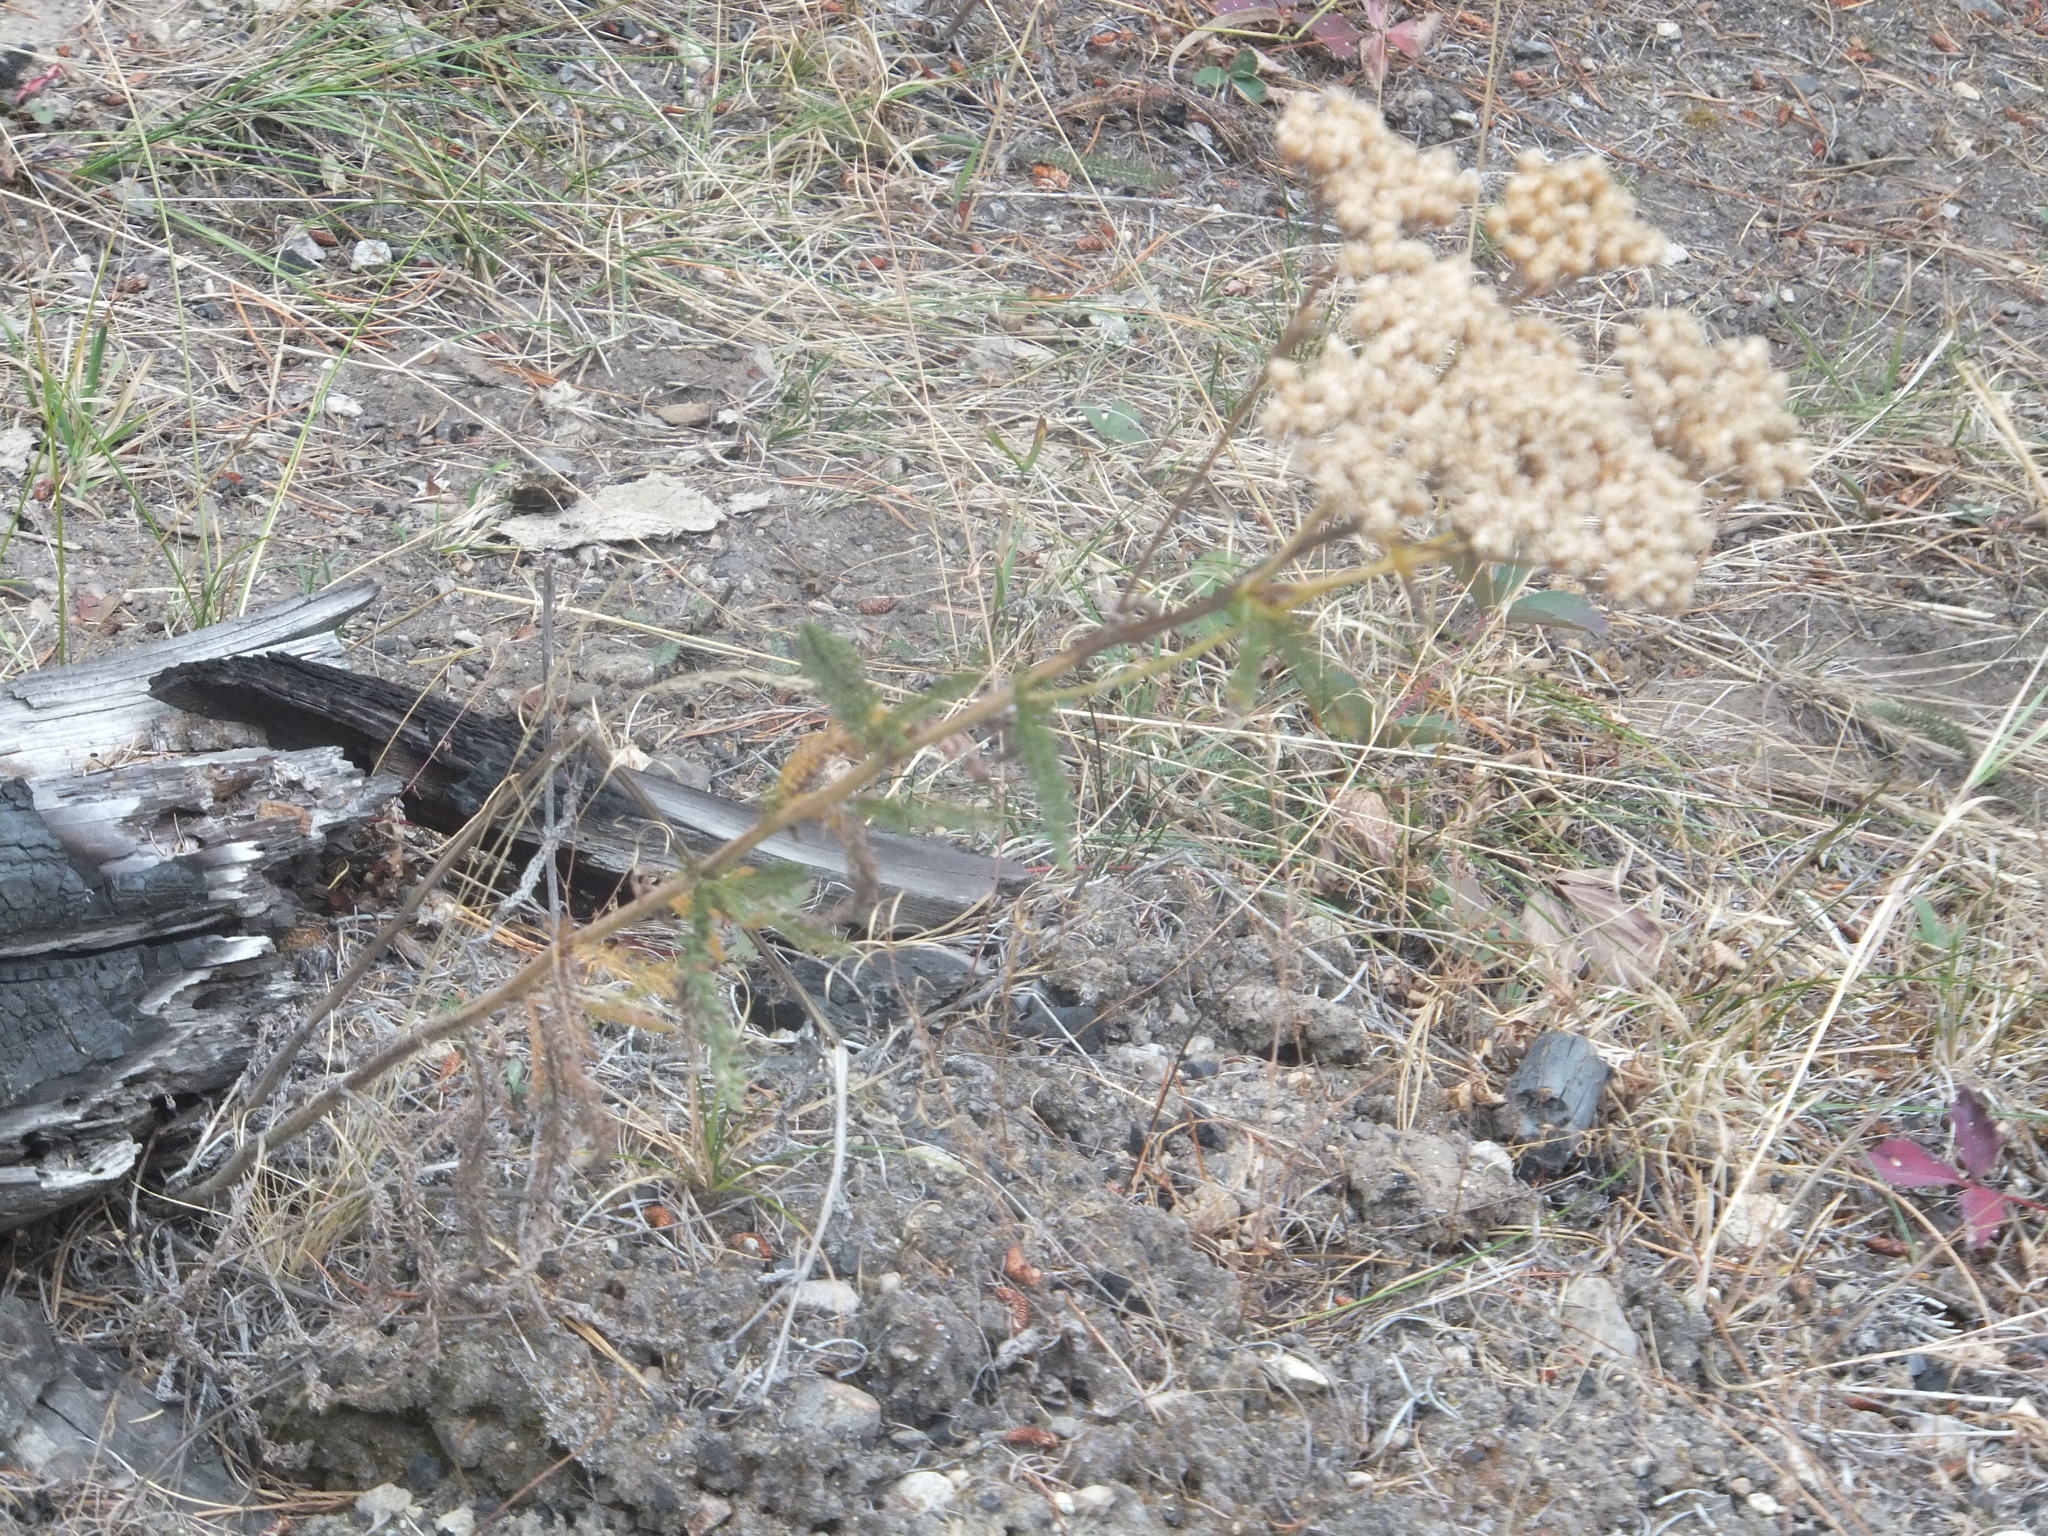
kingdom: Plantae
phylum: Tracheophyta
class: Magnoliopsida
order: Asterales
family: Asteraceae
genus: Achillea
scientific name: Achillea millefolium
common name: Yarrow
